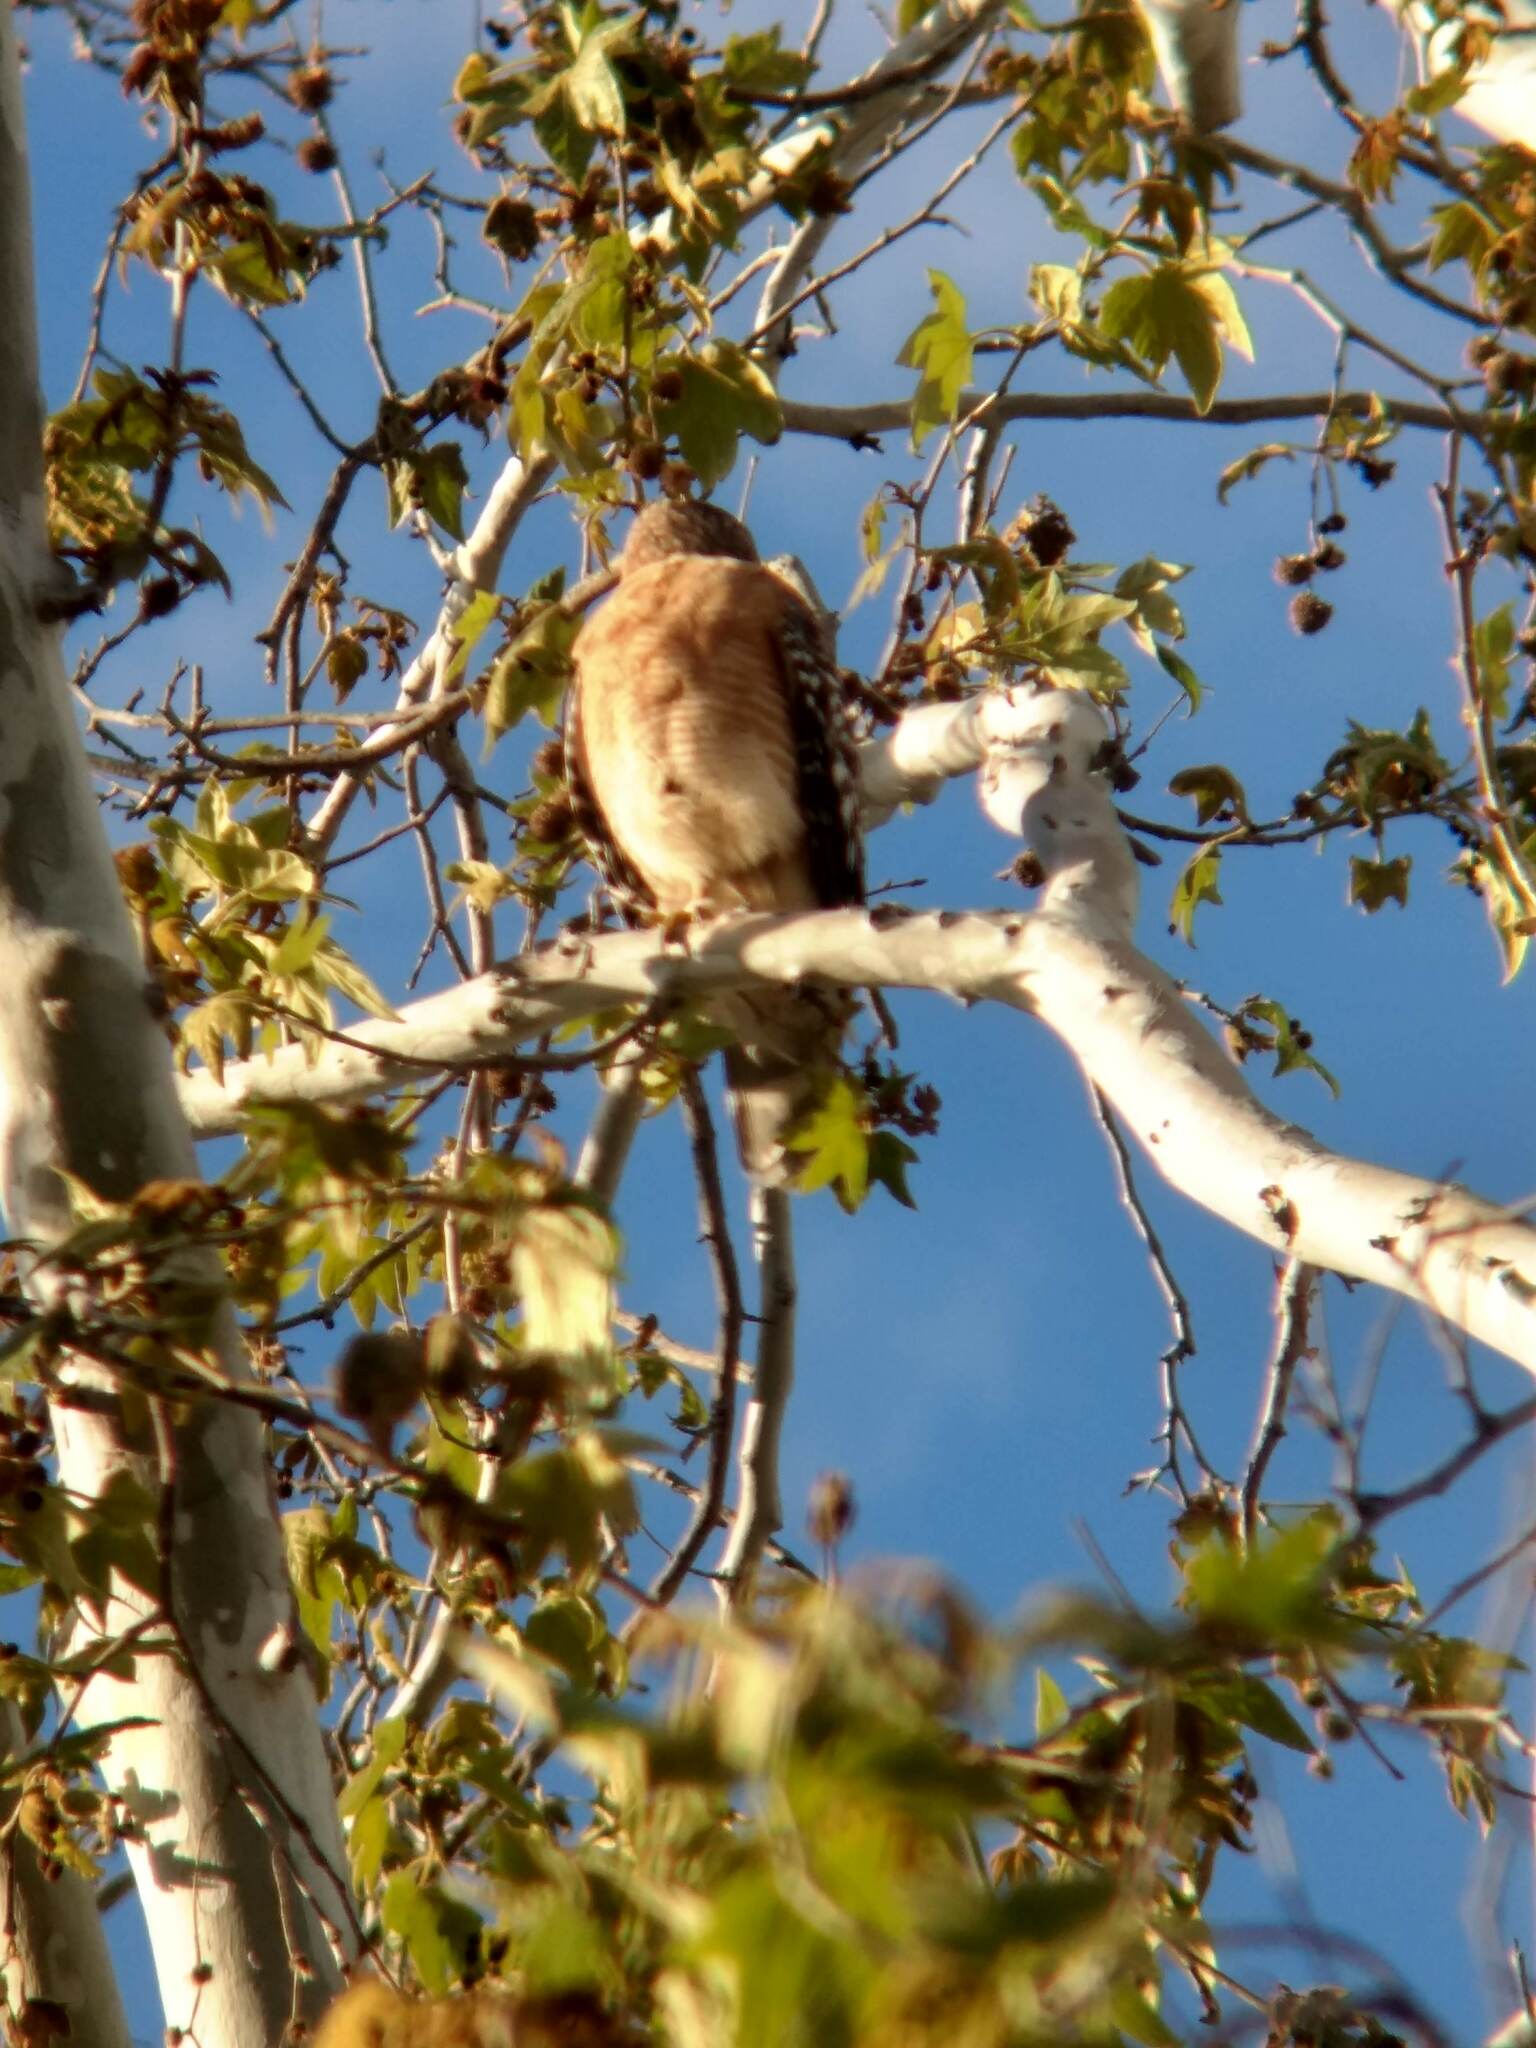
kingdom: Animalia
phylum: Chordata
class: Aves
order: Accipitriformes
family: Accipitridae
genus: Buteo
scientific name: Buteo lineatus
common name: Red-shouldered hawk
